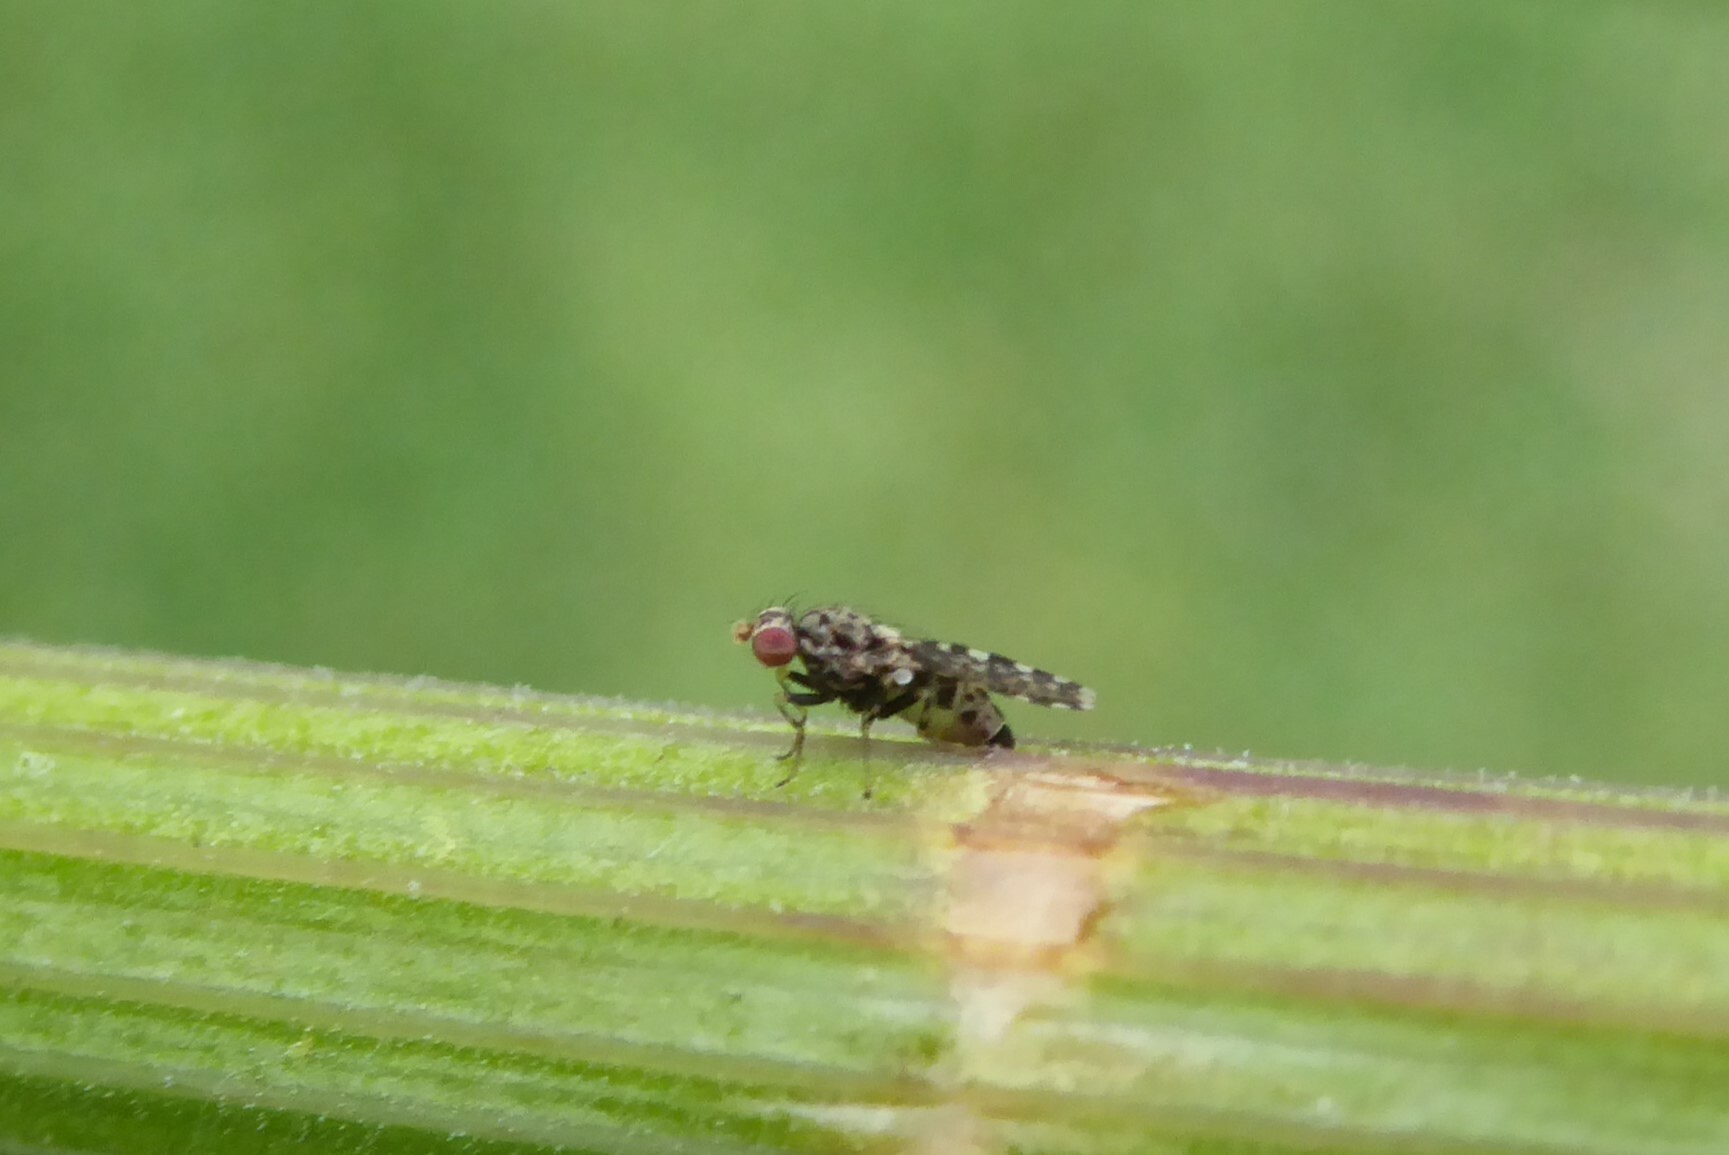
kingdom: Animalia
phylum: Arthropoda
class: Insecta
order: Diptera
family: Heleomyzidae
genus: Xeneura
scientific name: Xeneura picata
